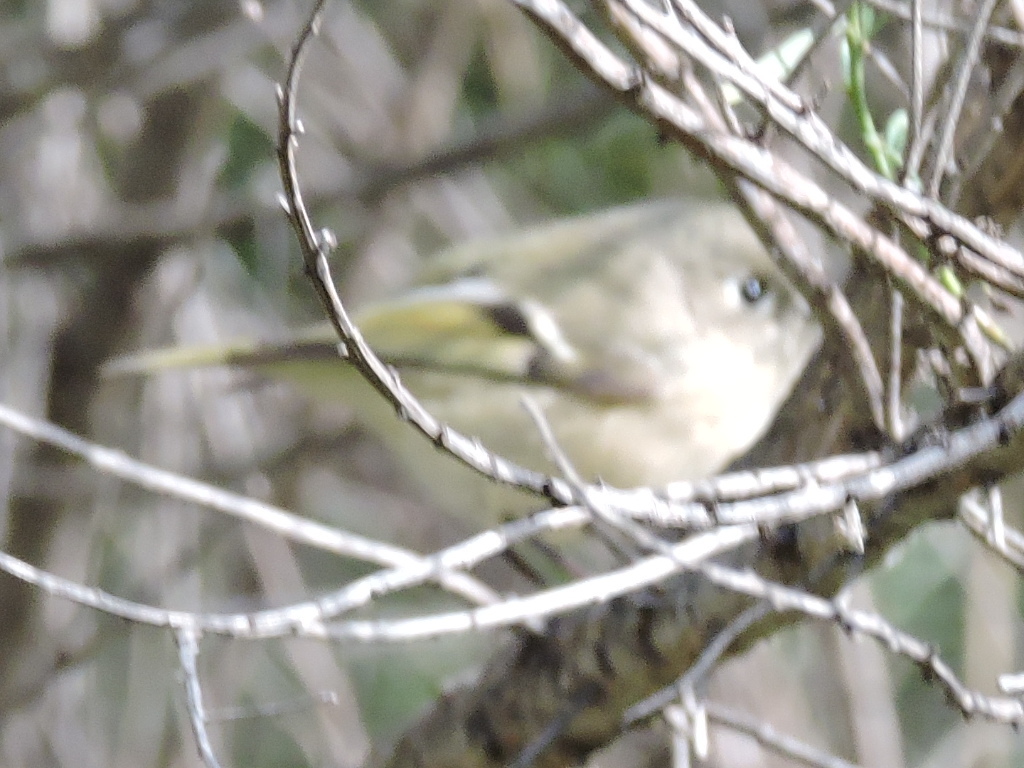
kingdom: Animalia
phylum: Chordata
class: Aves
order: Passeriformes
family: Regulidae
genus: Regulus
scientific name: Regulus calendula
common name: Ruby-crowned kinglet
